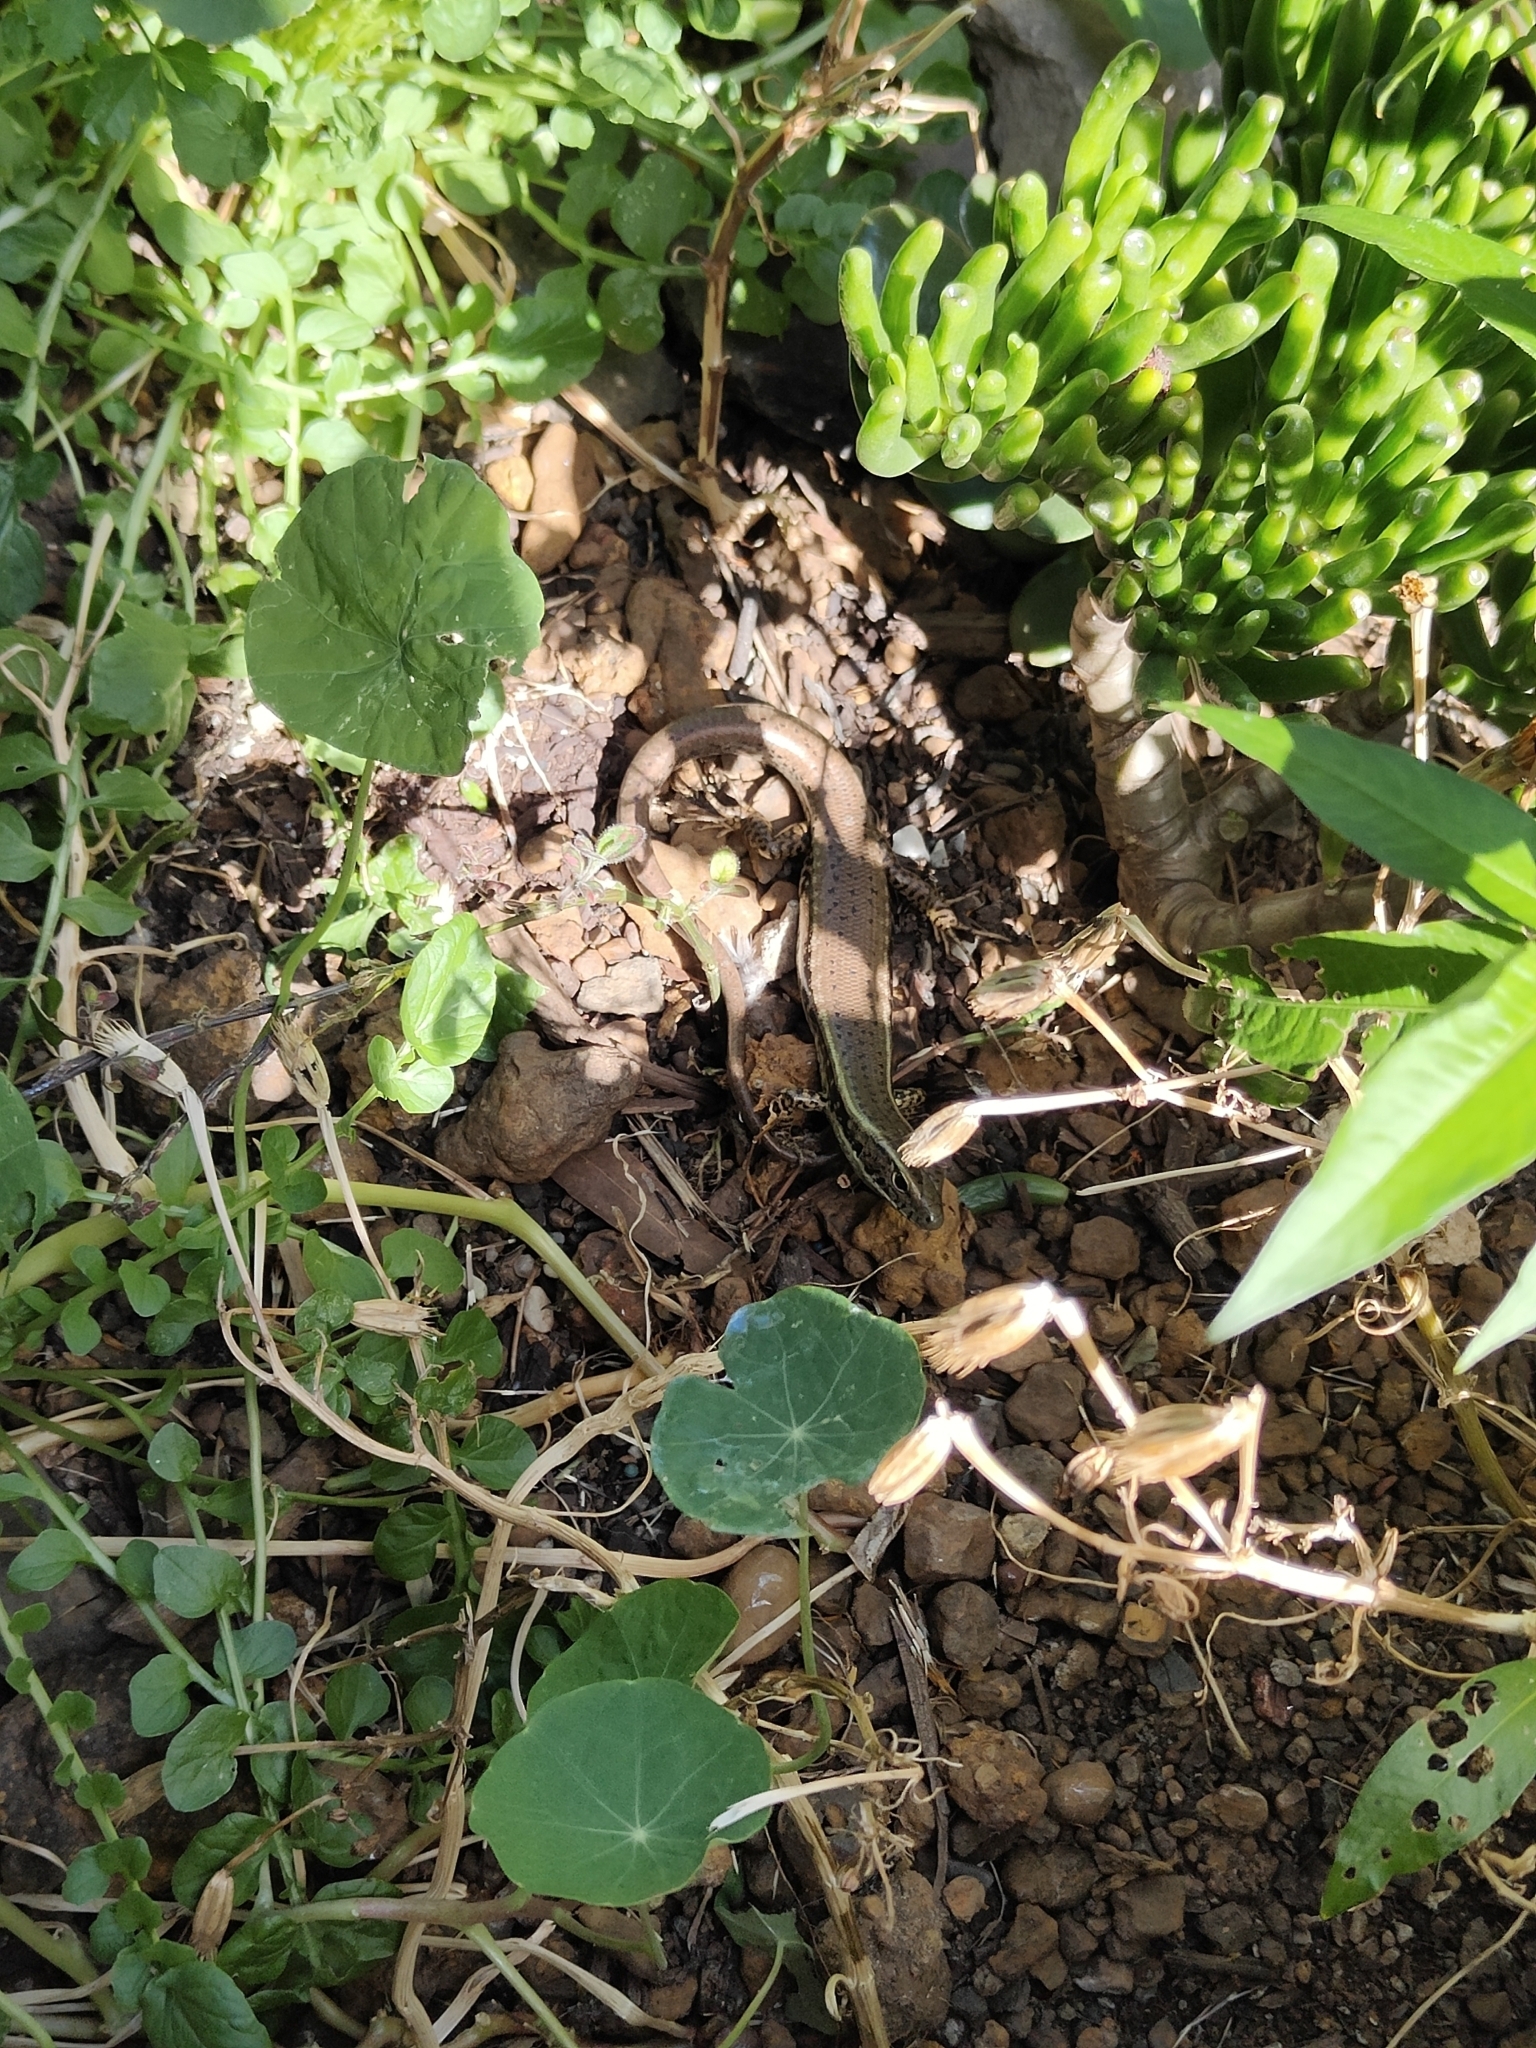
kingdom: Animalia
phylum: Chordata
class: Squamata
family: Scincidae
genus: Eulamprus
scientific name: Eulamprus quoyii
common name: Eastern water skink
